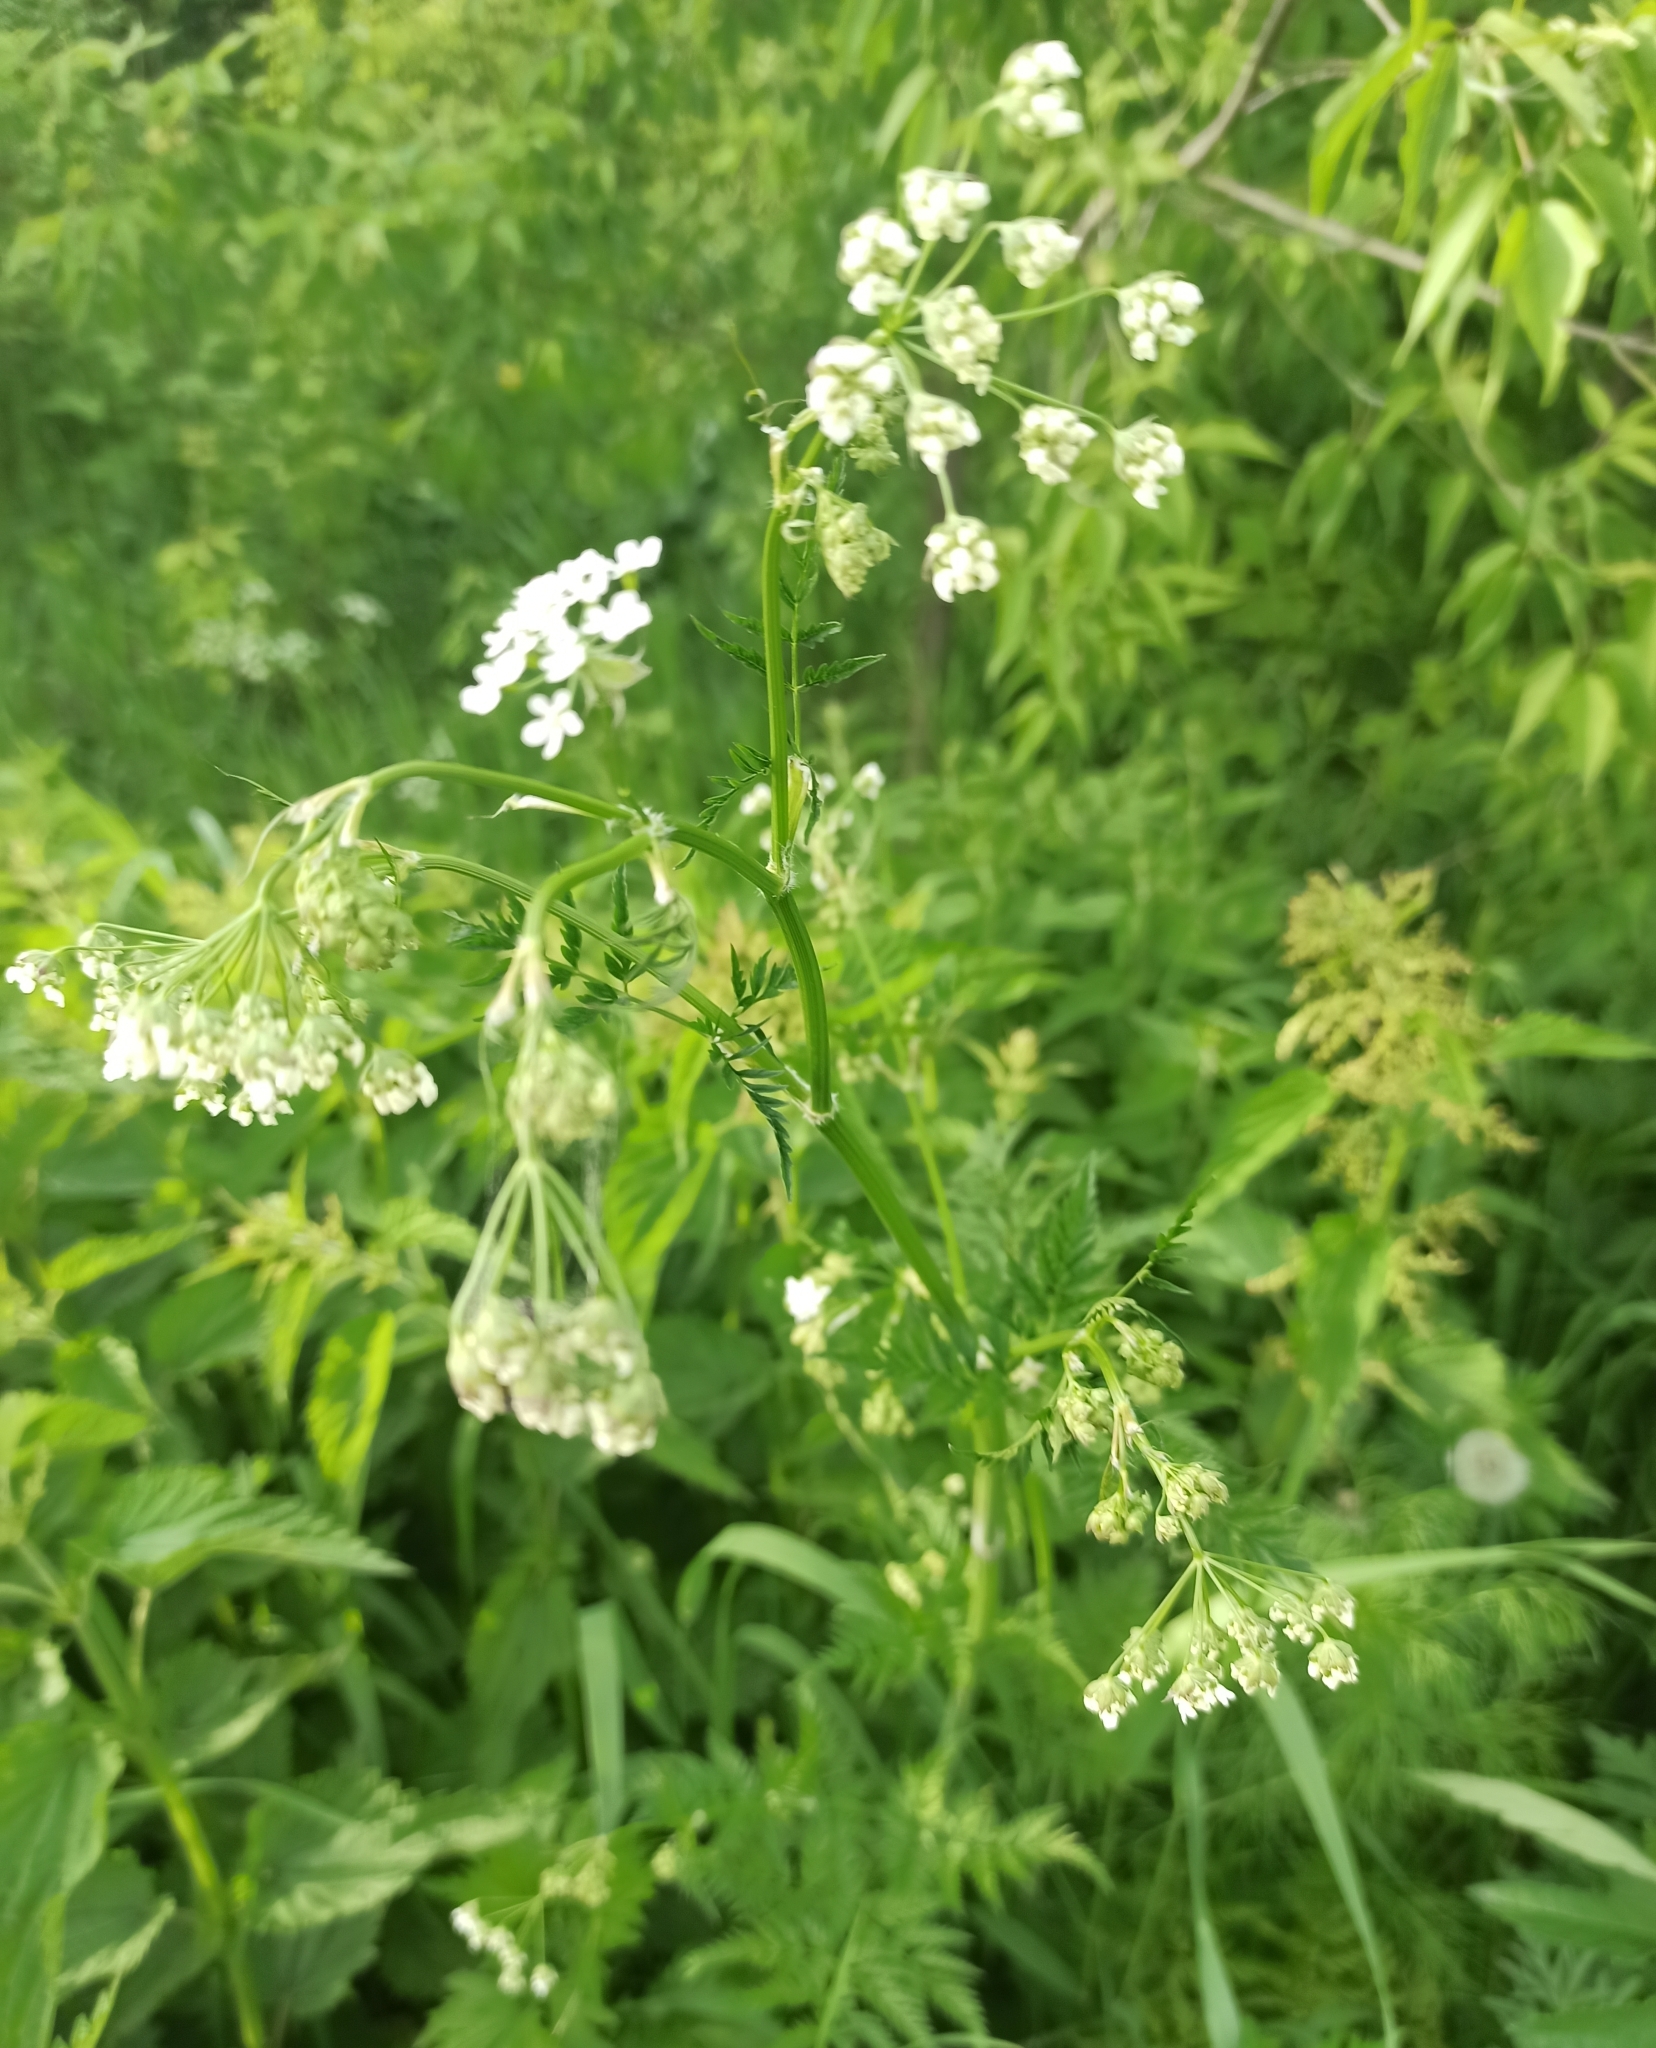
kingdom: Plantae
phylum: Tracheophyta
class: Magnoliopsida
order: Apiales
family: Apiaceae
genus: Anthriscus
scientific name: Anthriscus sylvestris
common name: Cow parsley
